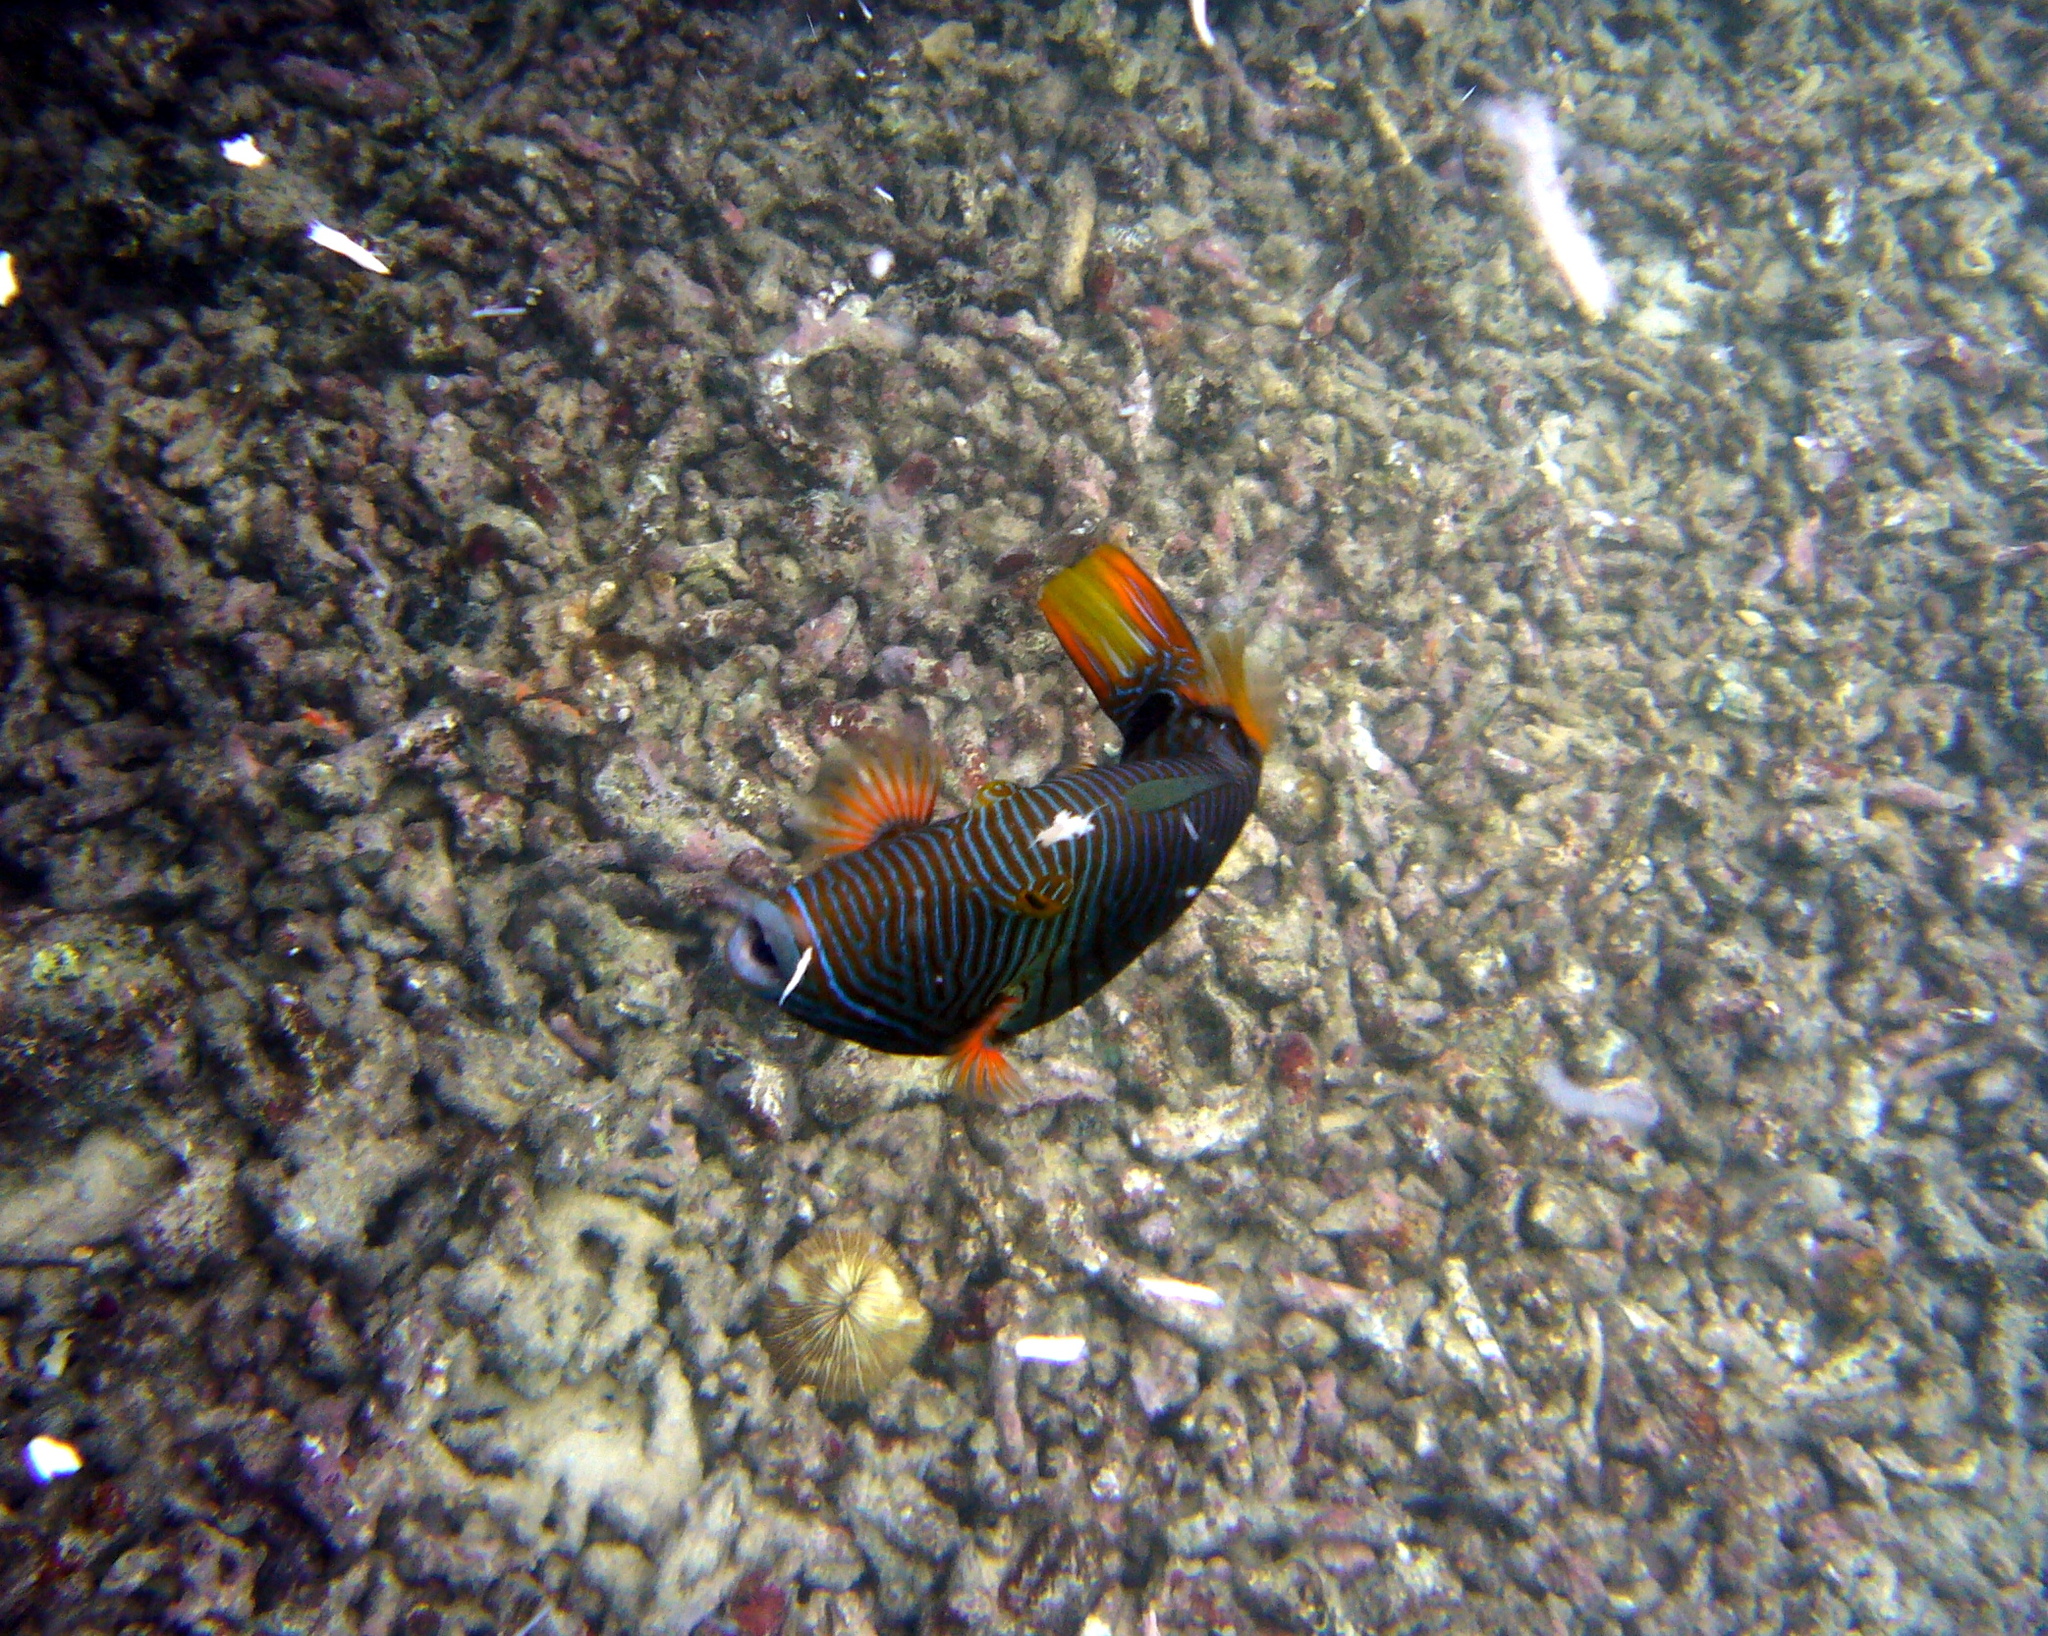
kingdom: Animalia
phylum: Chordata
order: Tetraodontiformes
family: Balistidae
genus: Balistapus
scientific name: Balistapus undulatus
